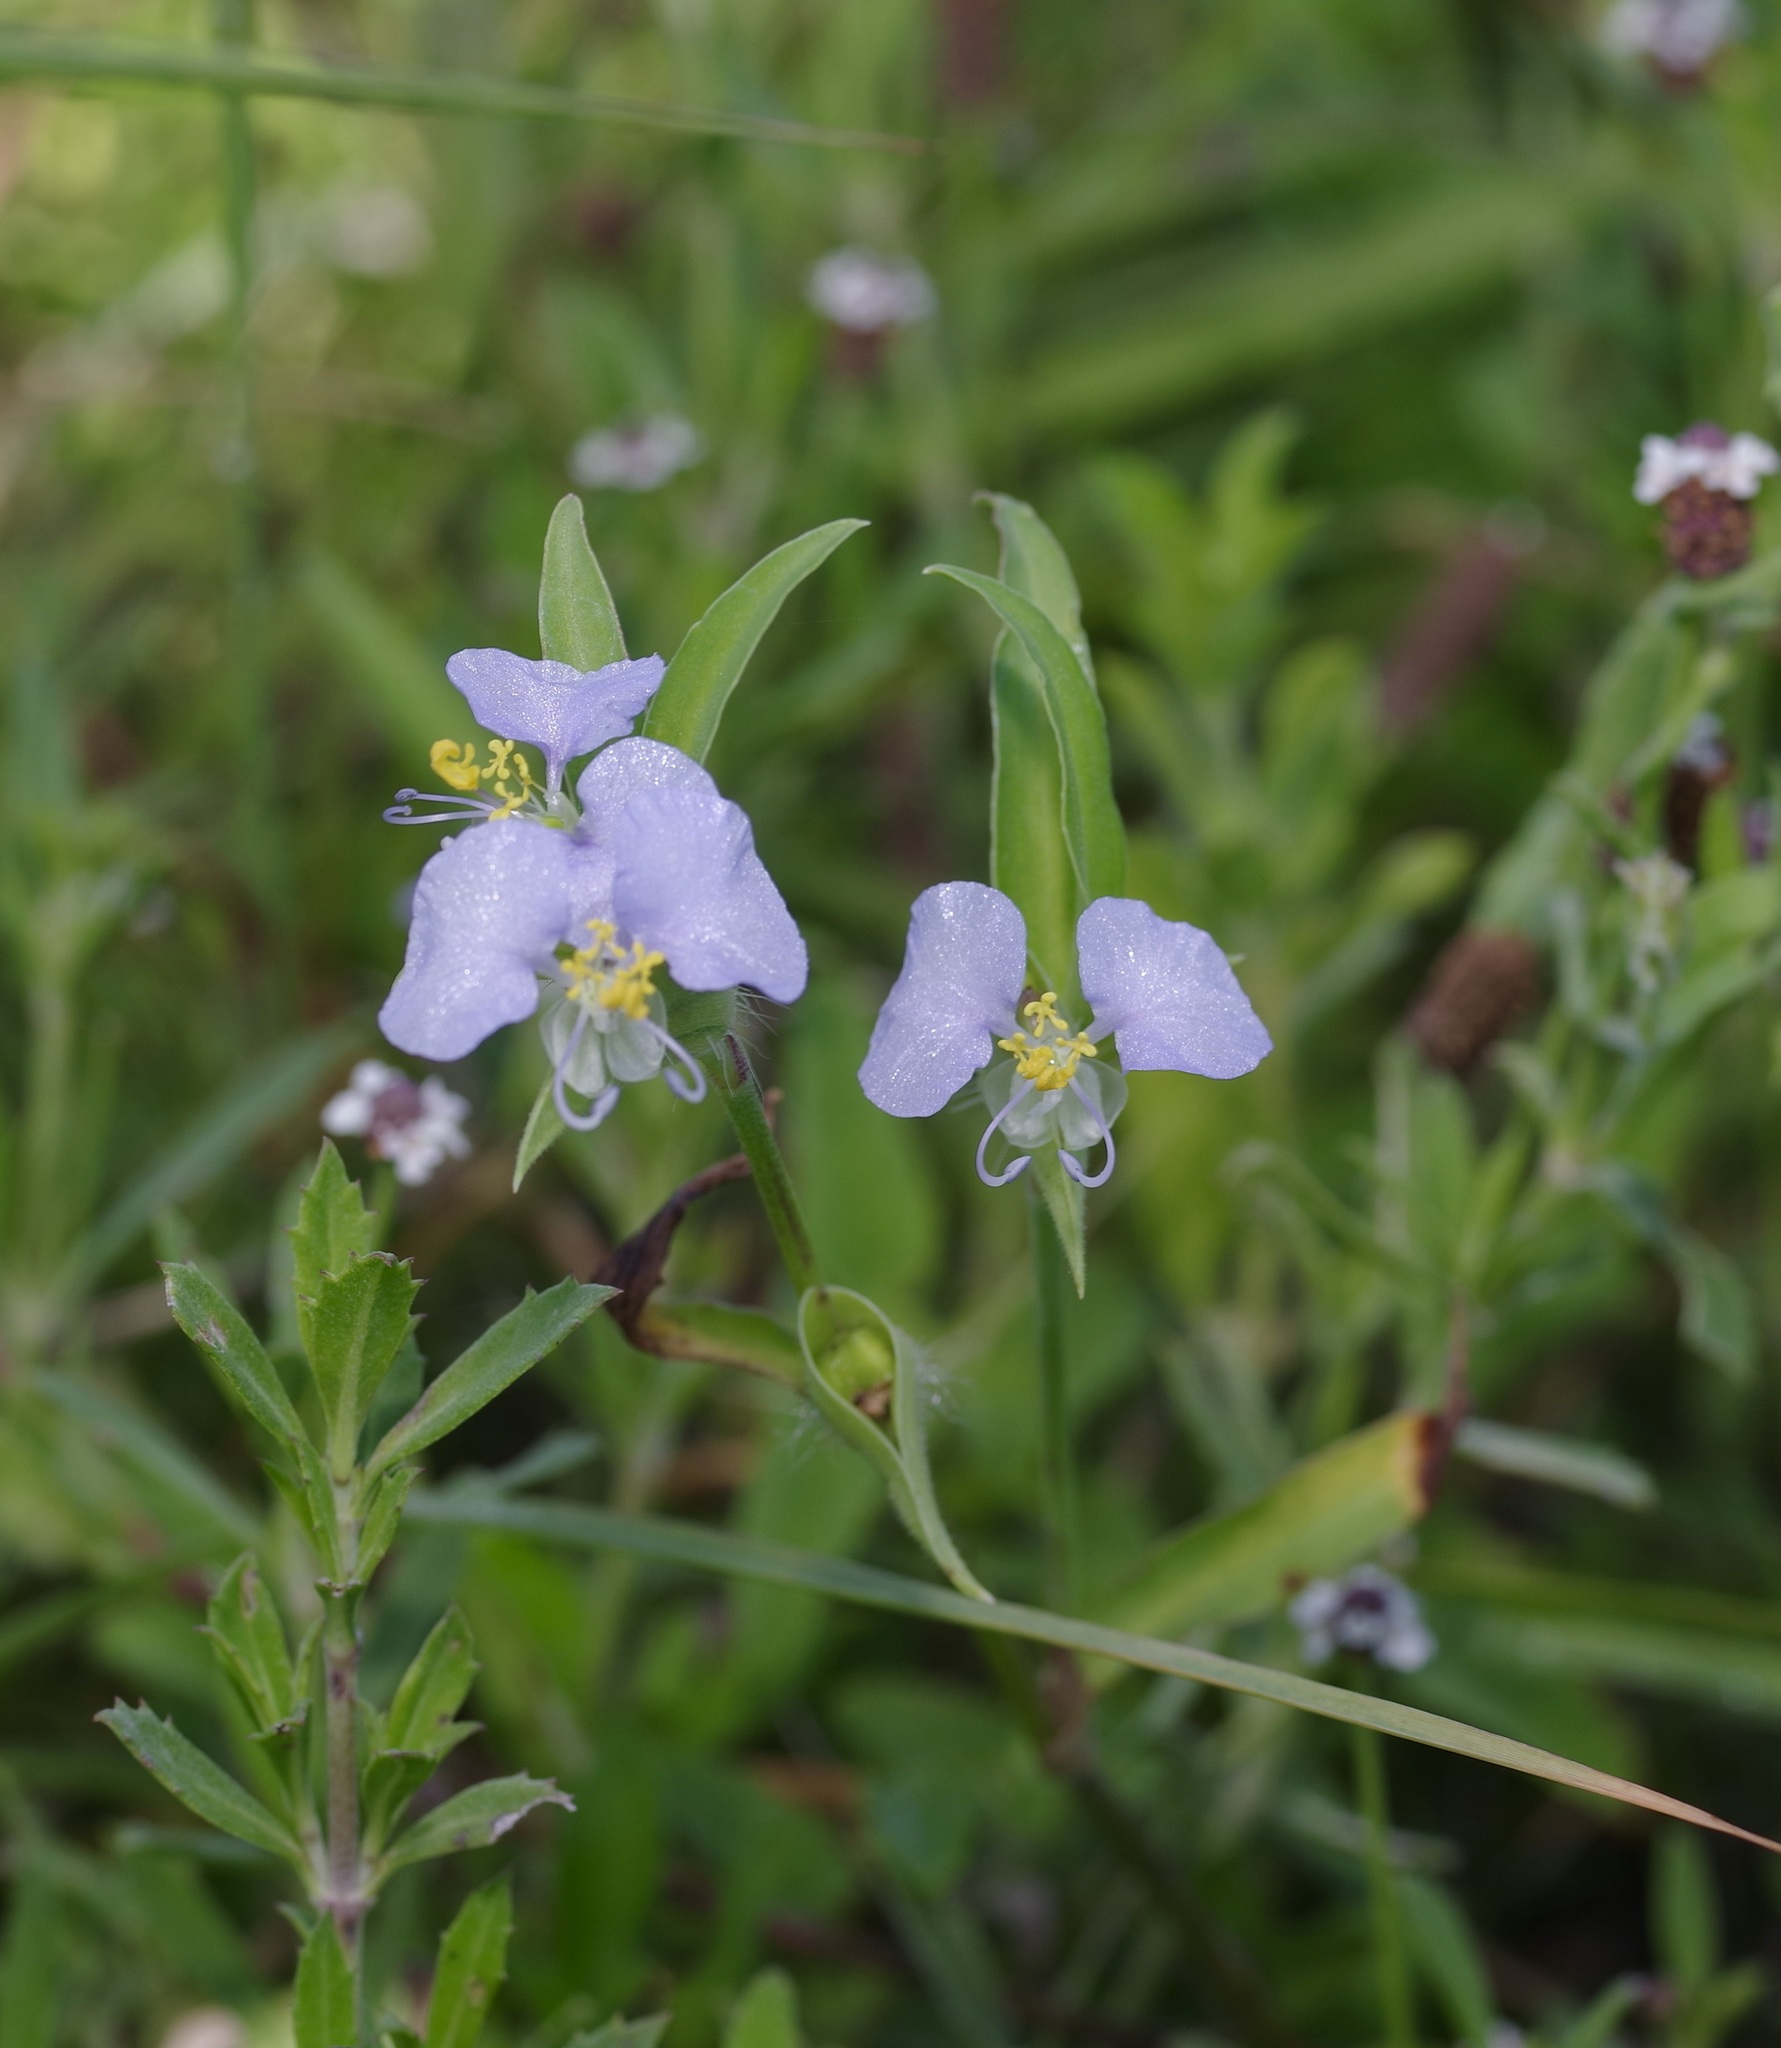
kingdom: Plantae
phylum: Tracheophyta
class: Liliopsida
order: Commelinales
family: Commelinaceae
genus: Commelina
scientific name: Commelina erecta
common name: Blousel blommetjie
